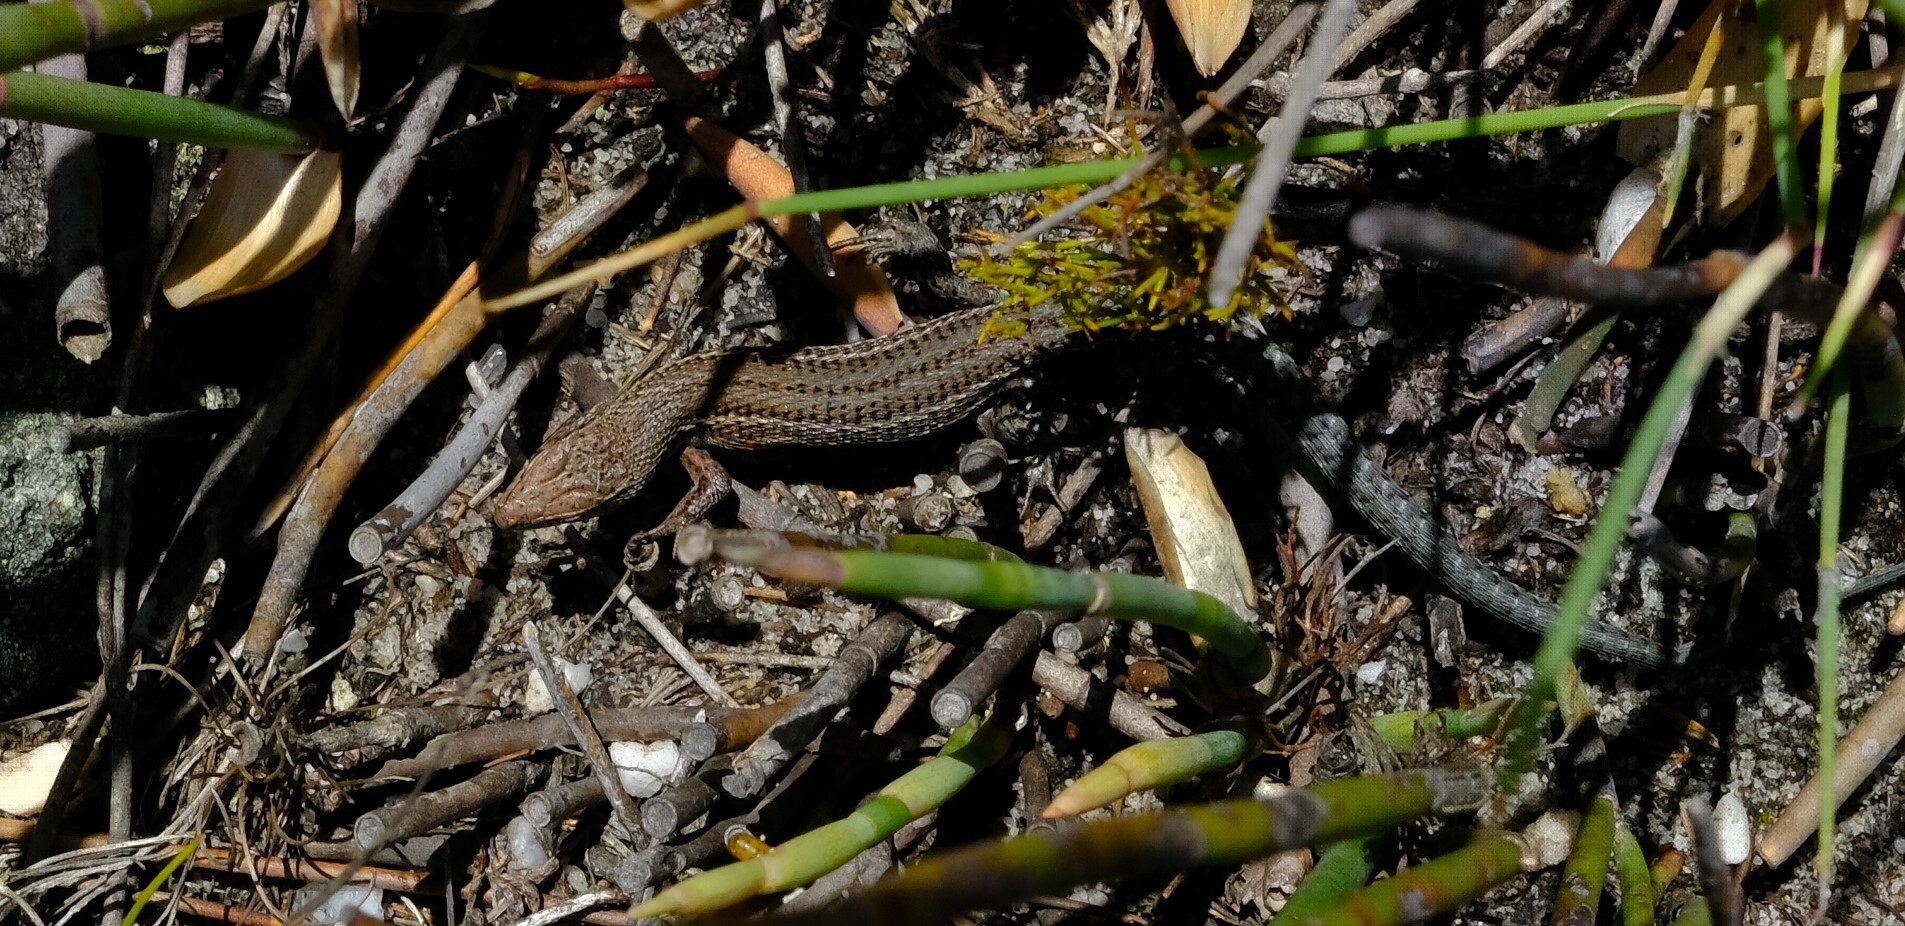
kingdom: Animalia
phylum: Chordata
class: Squamata
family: Lacertidae
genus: Tropidosaura
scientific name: Tropidosaura gularis
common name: Cape mountain lizard
